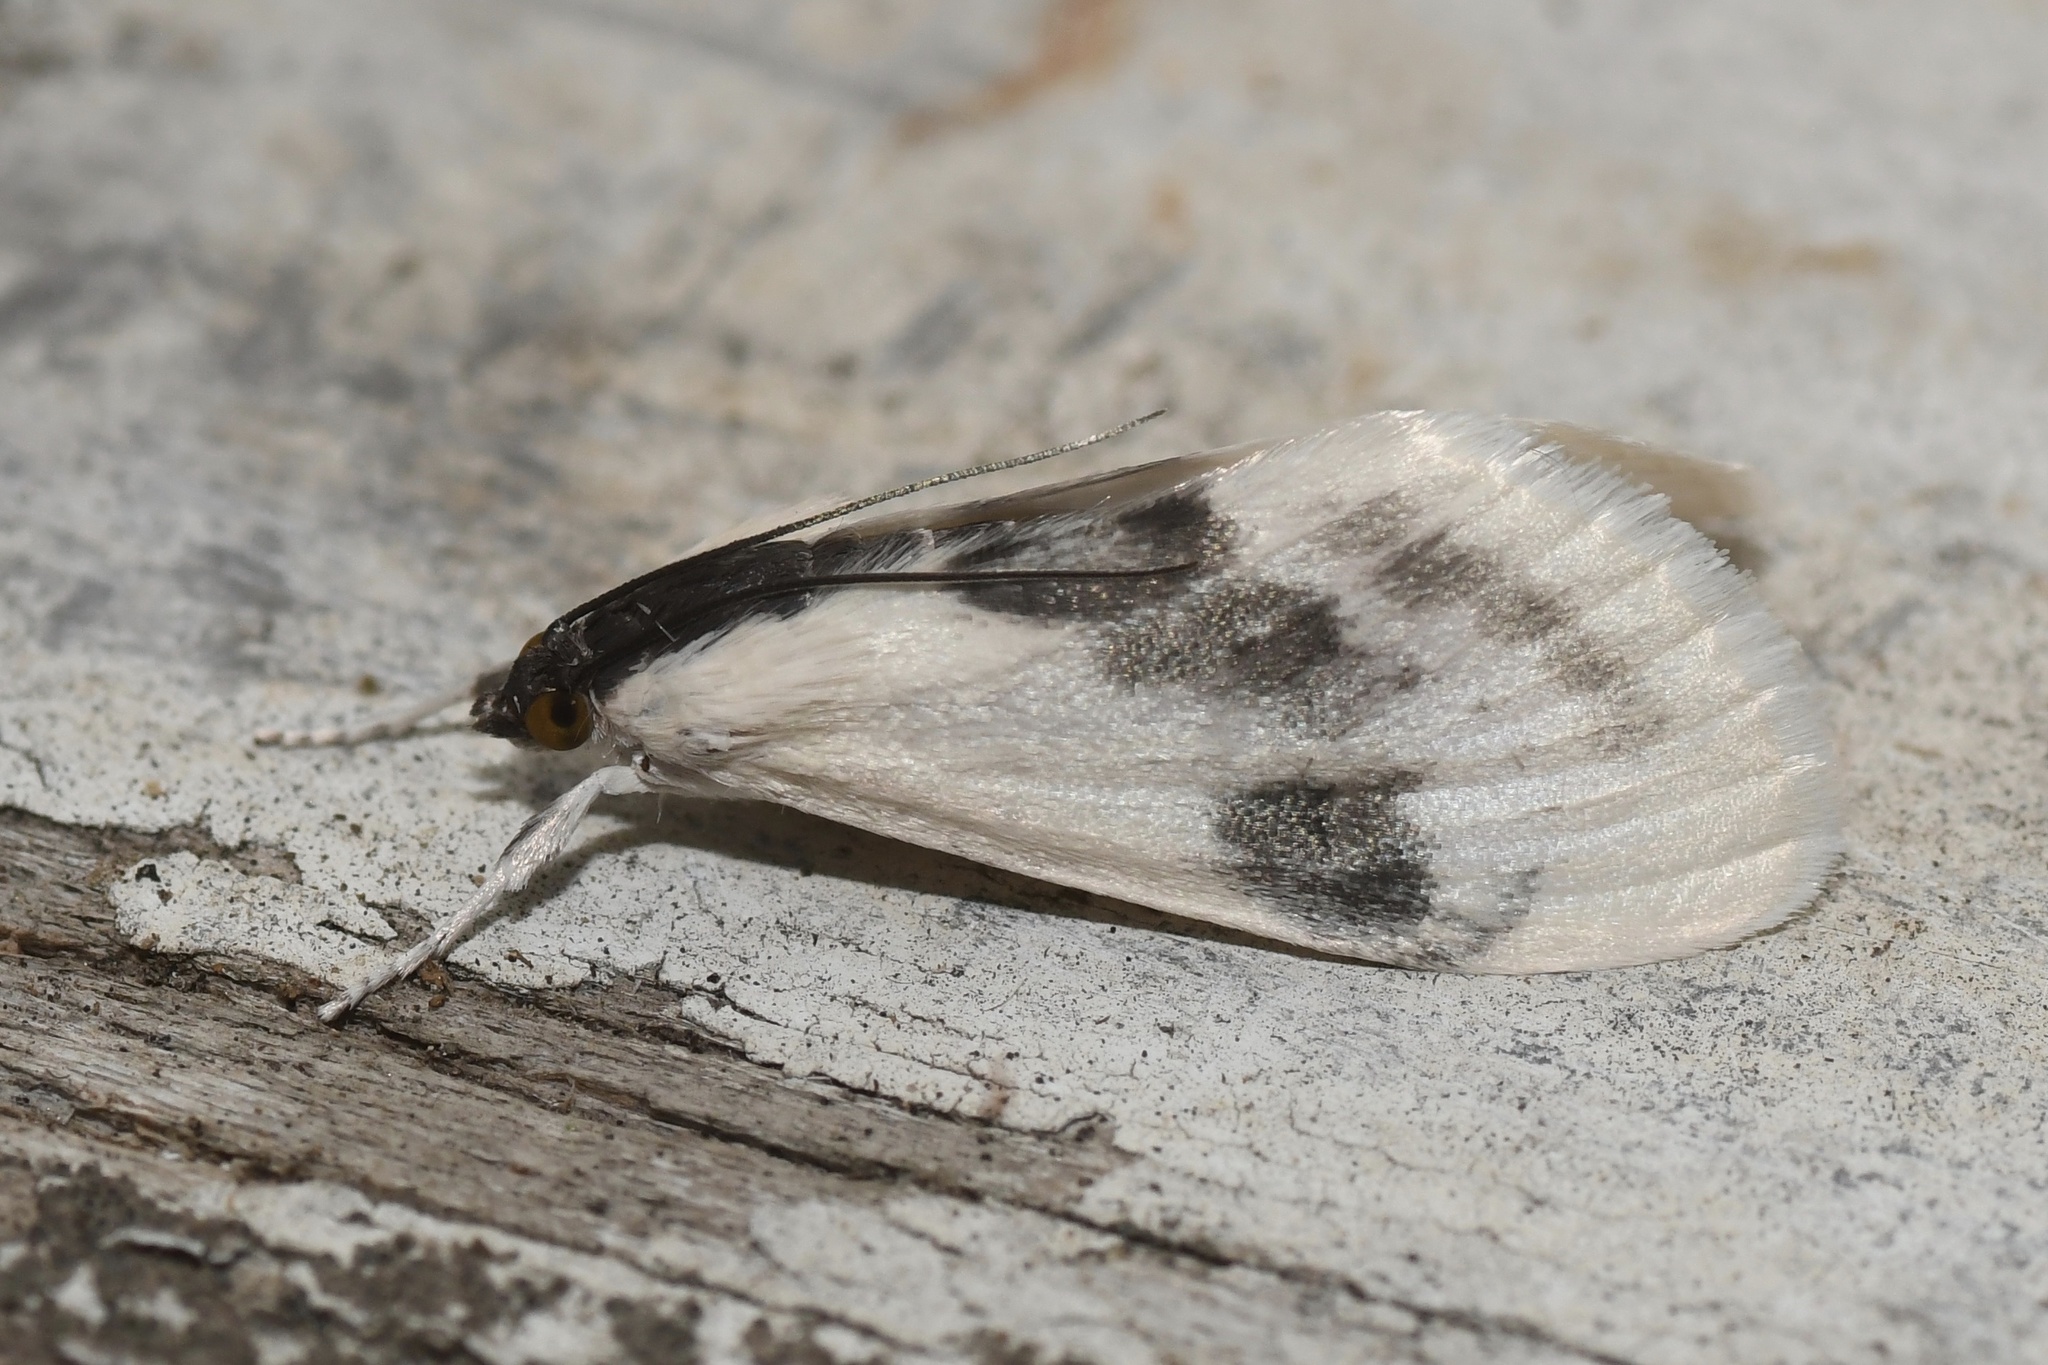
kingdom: Animalia
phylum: Arthropoda
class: Insecta
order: Lepidoptera
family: Crambidae
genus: Cliniodes
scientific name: Cliniodes
